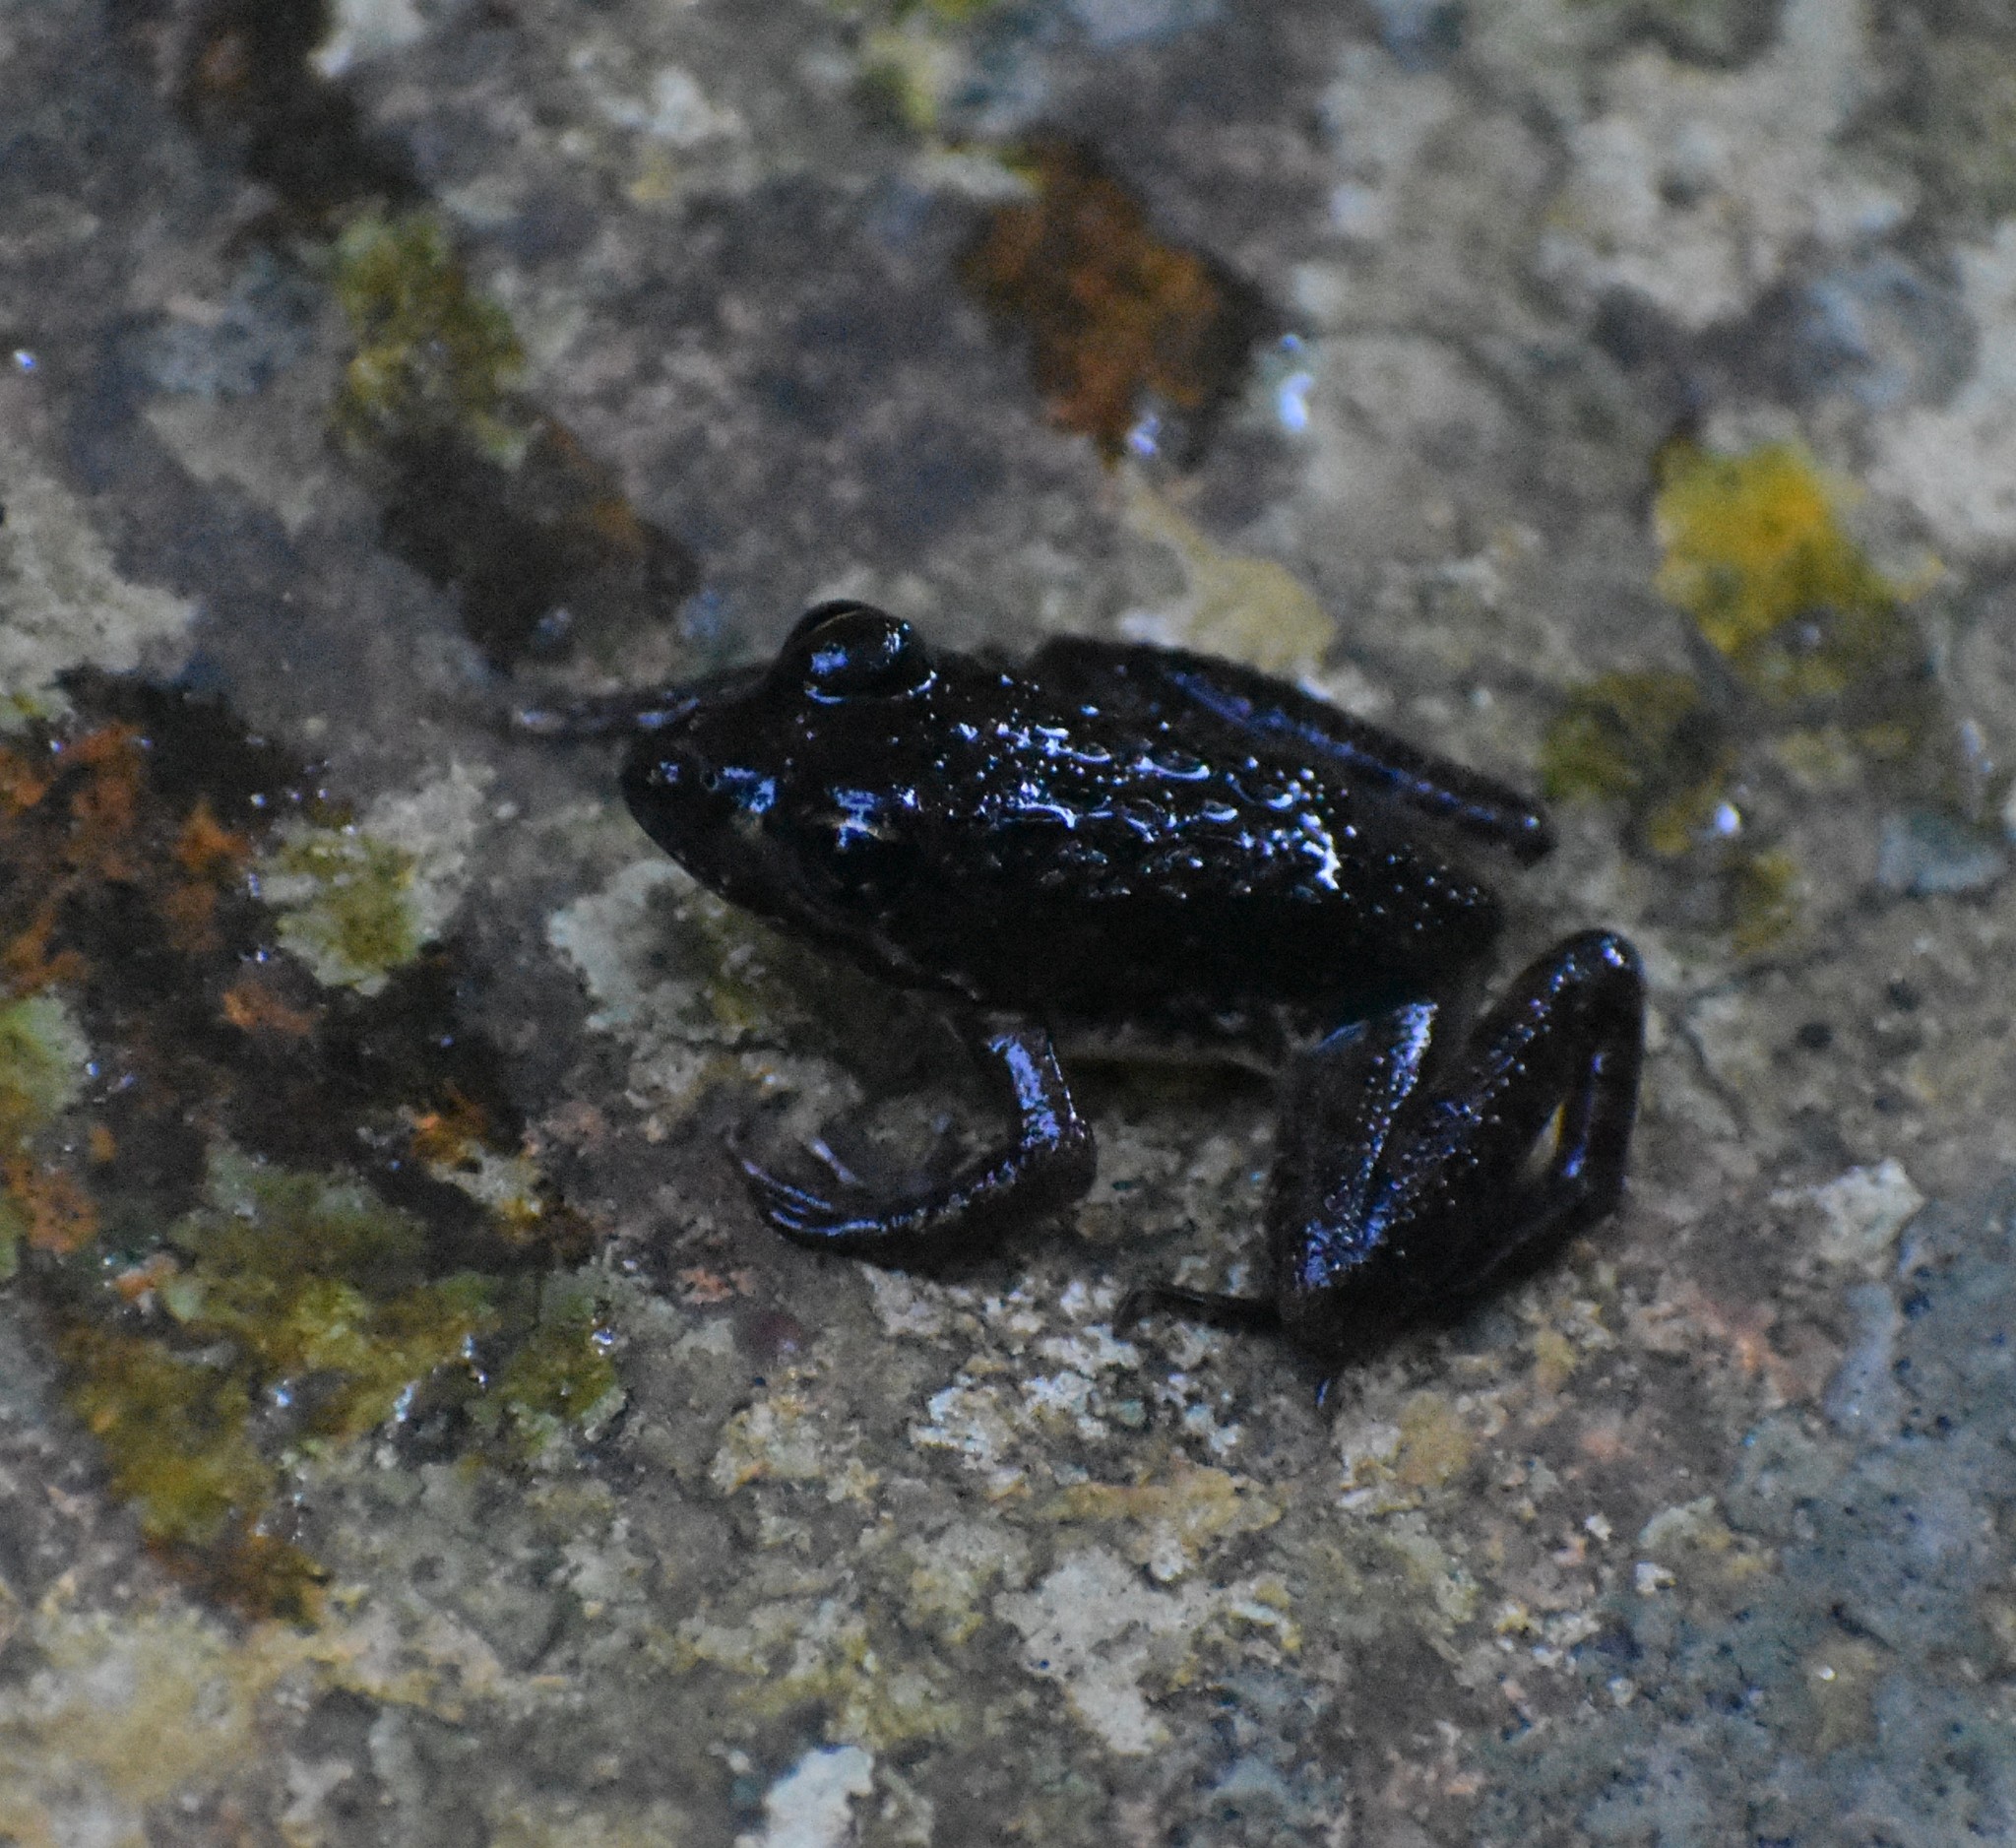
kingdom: Animalia
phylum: Chordata
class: Amphibia
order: Anura
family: Pyxicephalidae
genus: Amietia
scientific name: Amietia fuscigula
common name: Cape rana
